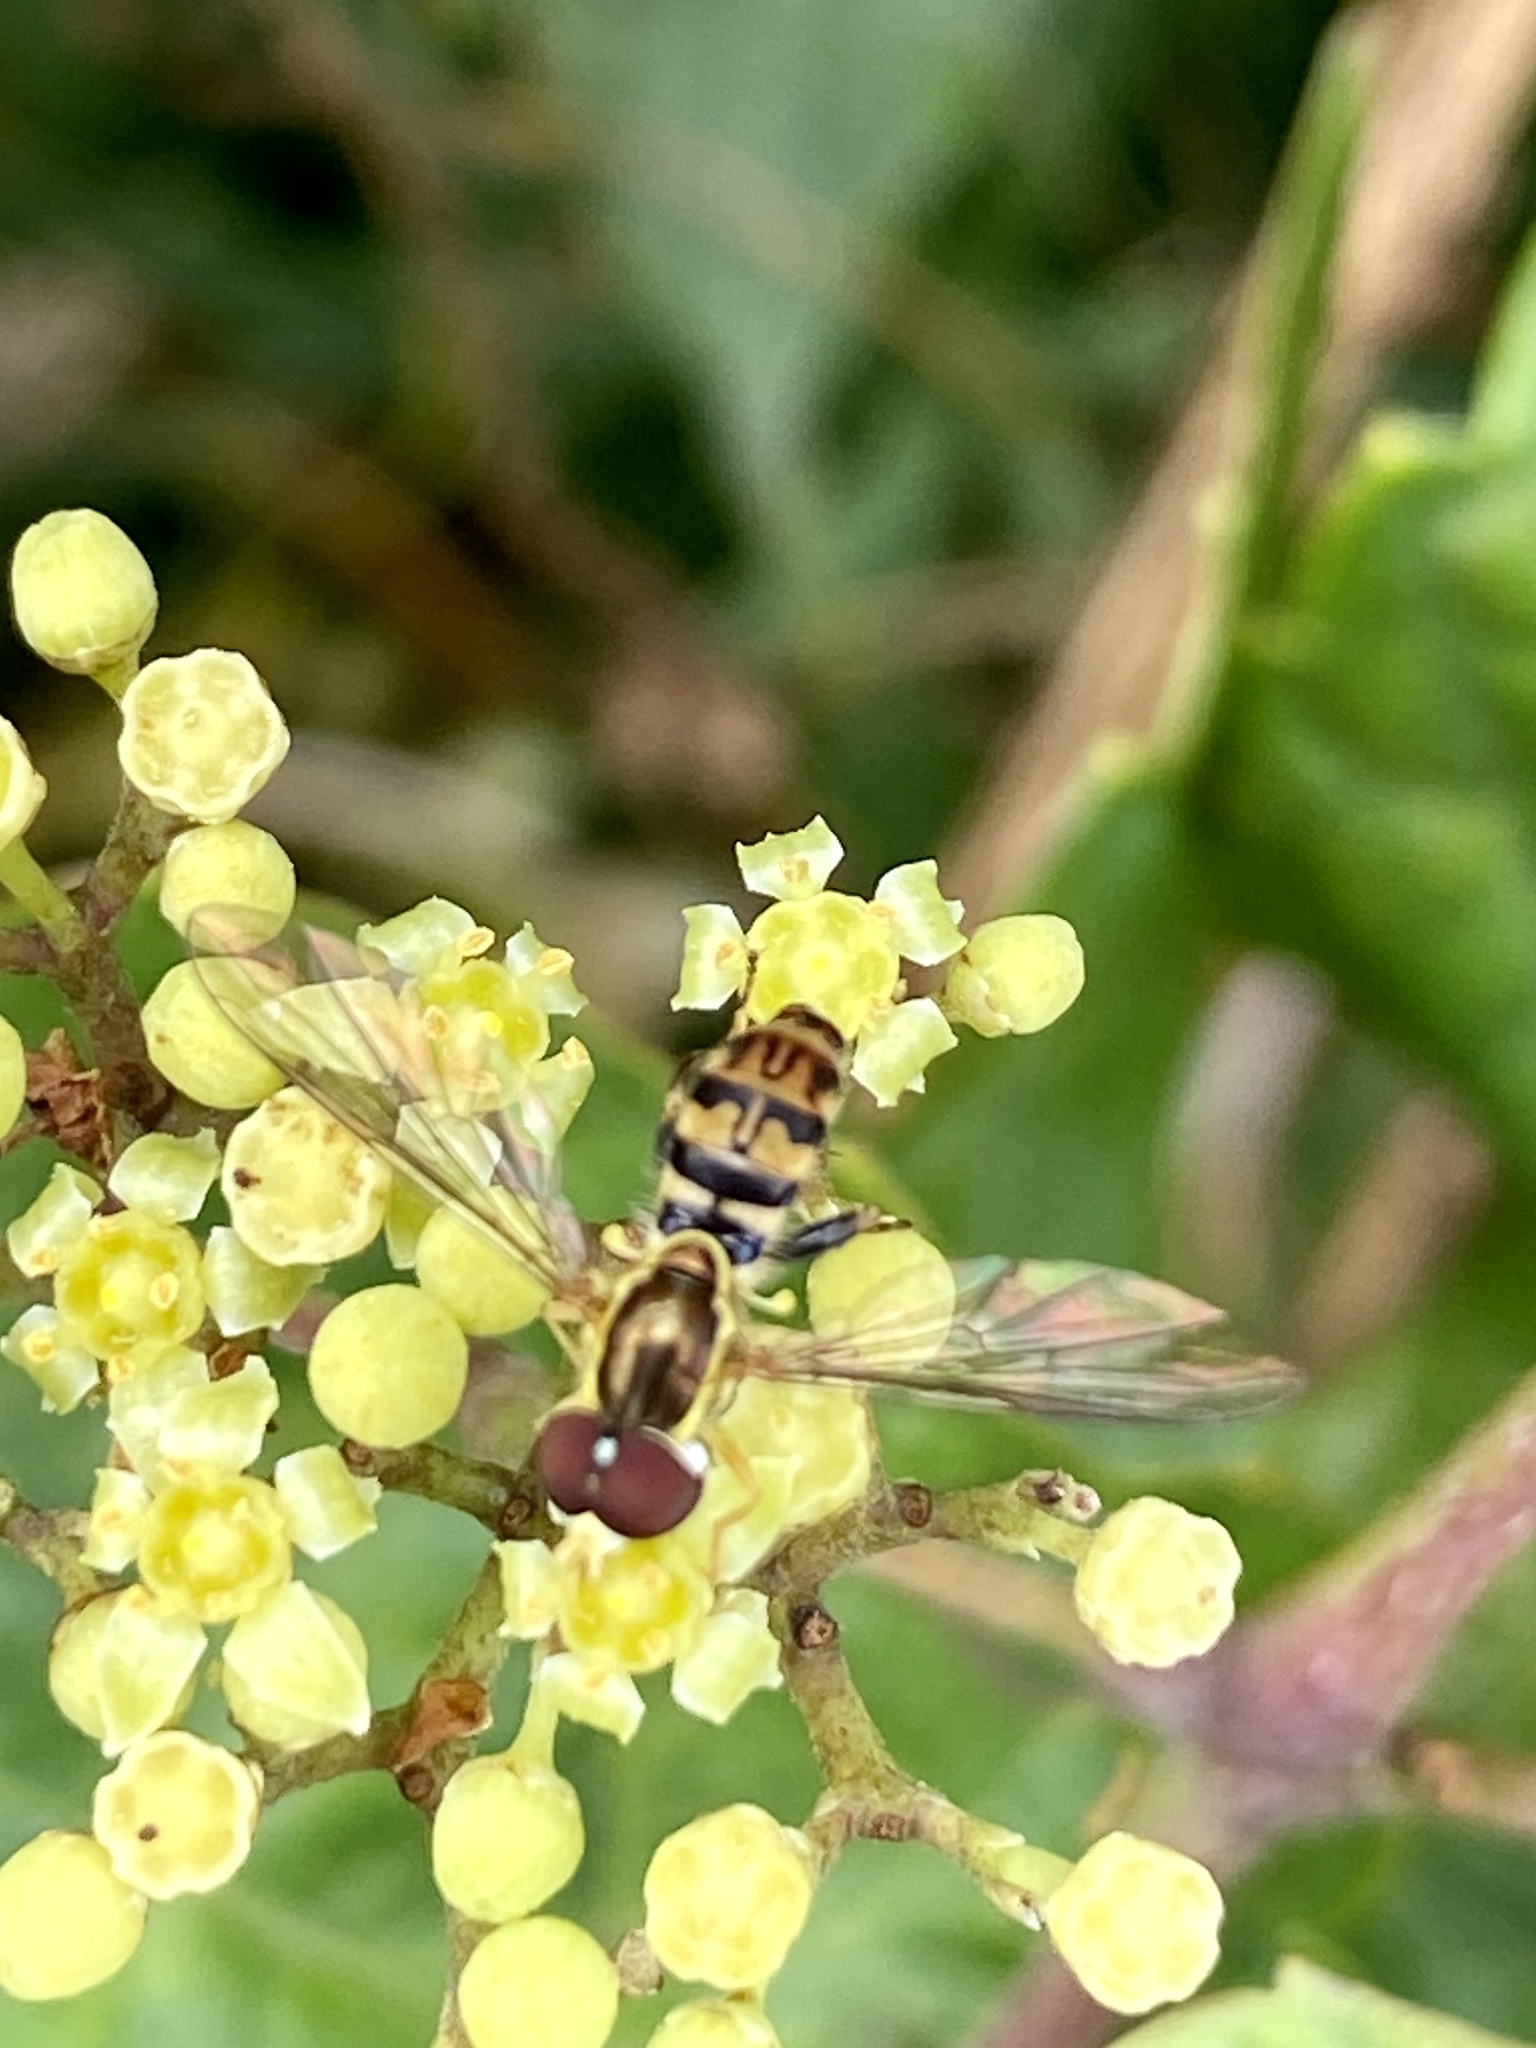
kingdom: Animalia
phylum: Arthropoda
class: Insecta
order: Diptera
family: Syrphidae
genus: Toxomerus
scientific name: Toxomerus geminatus
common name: Eastern calligrapher
